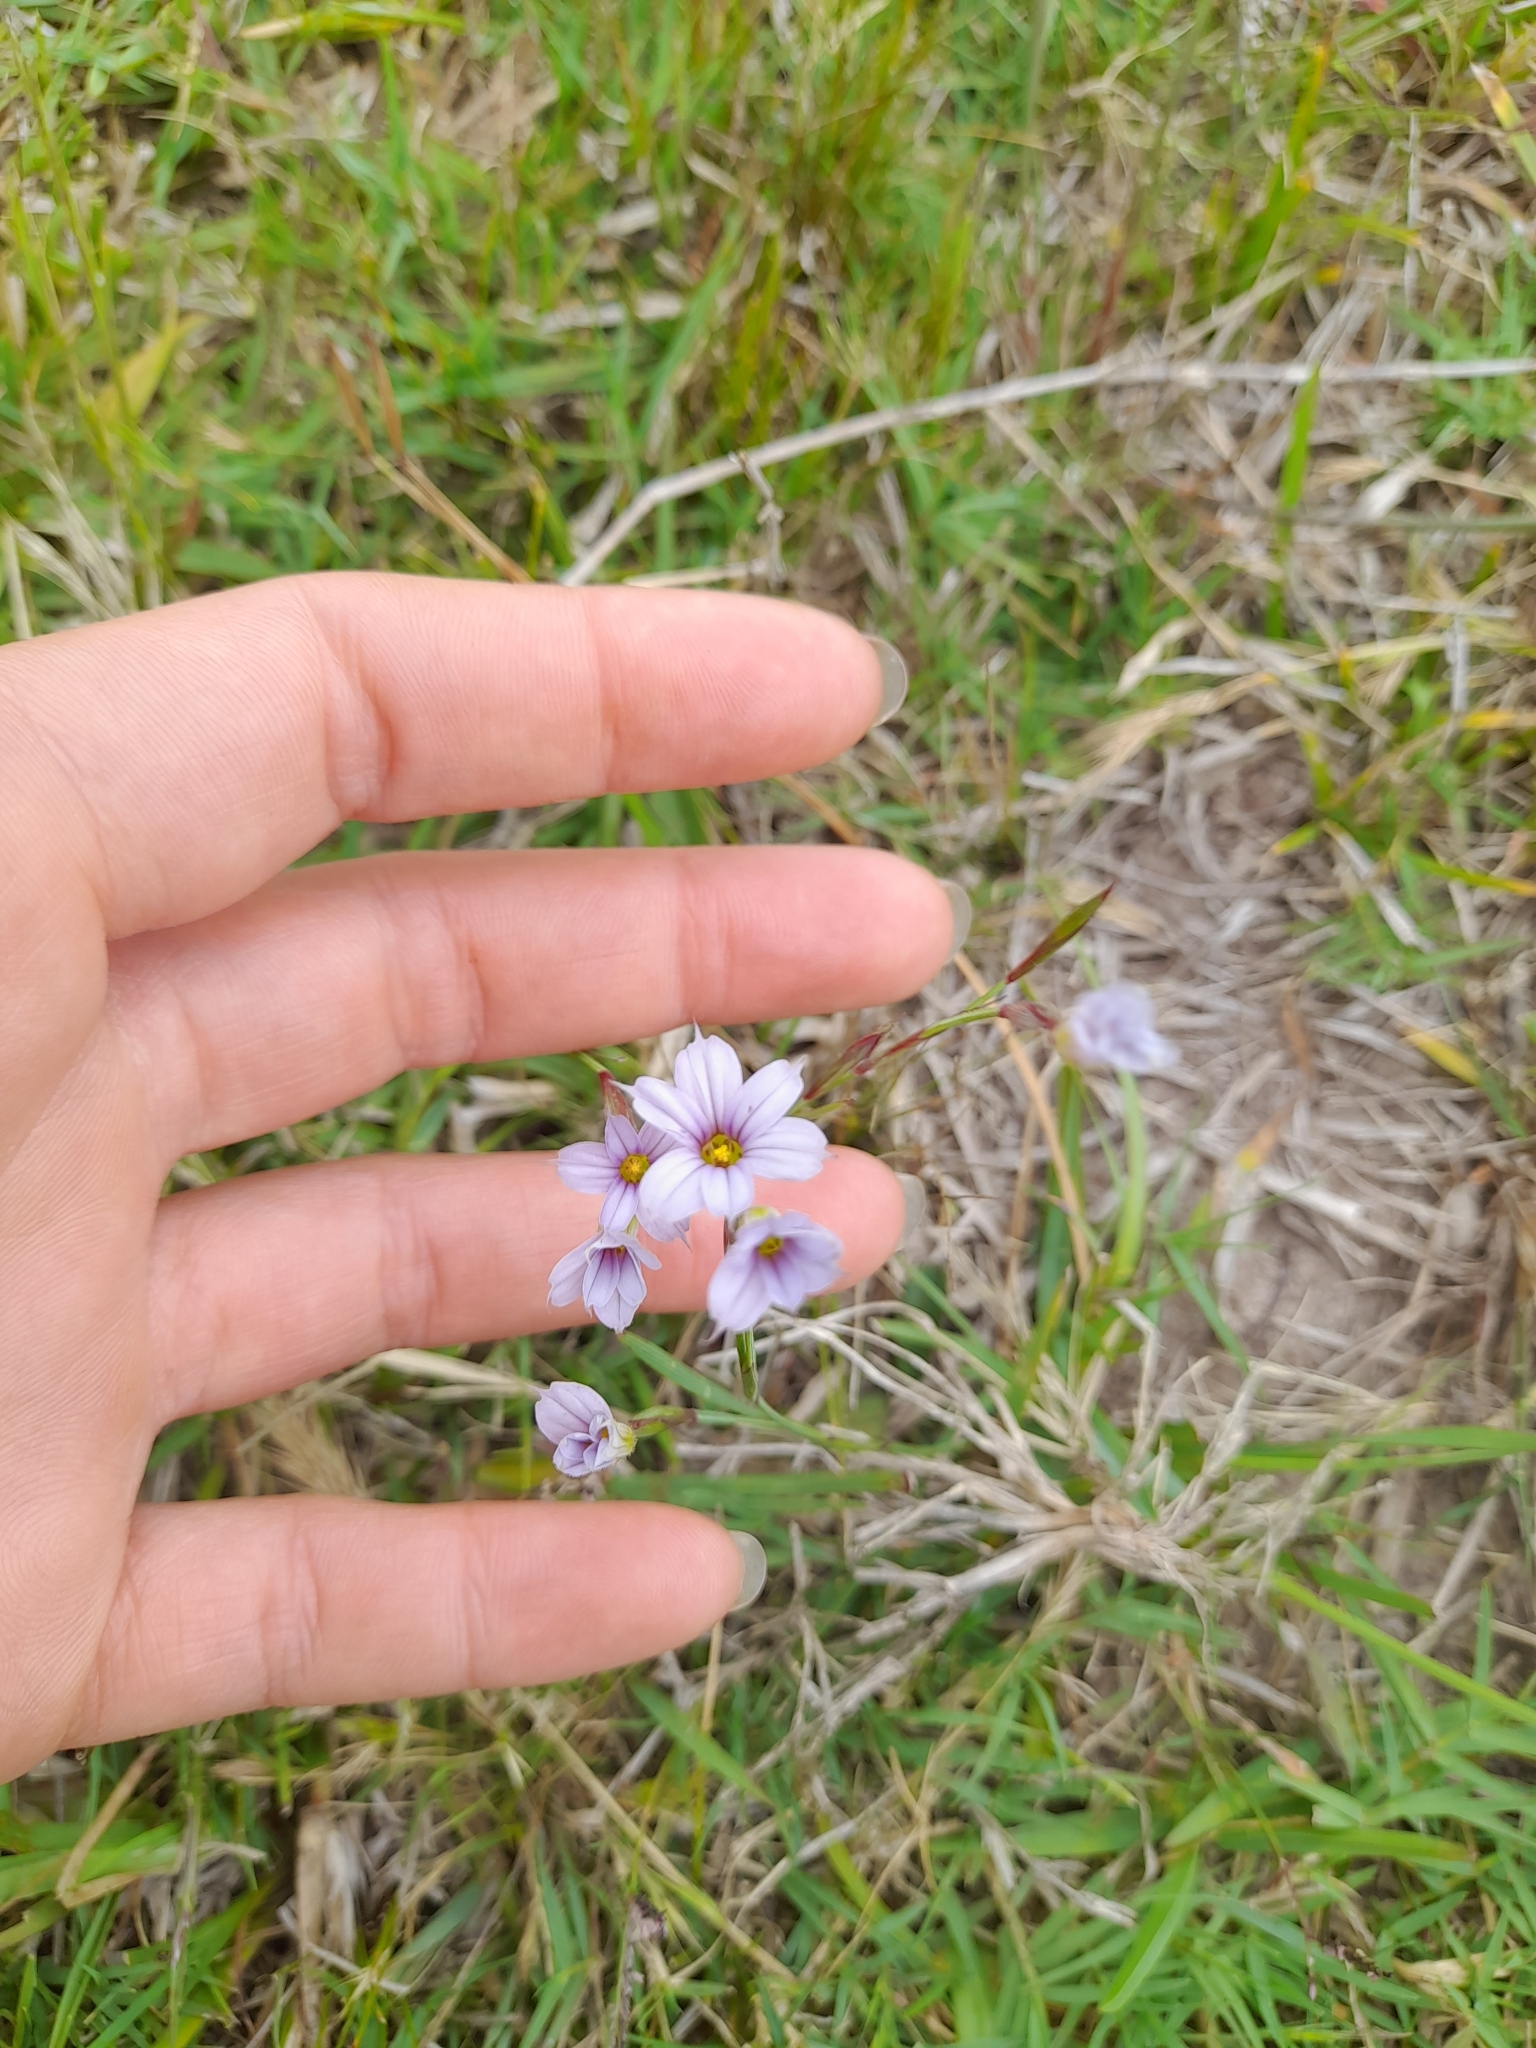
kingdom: Plantae
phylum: Tracheophyta
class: Liliopsida
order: Asparagales
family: Iridaceae
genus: Sisyrinchium
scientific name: Sisyrinchium platense
